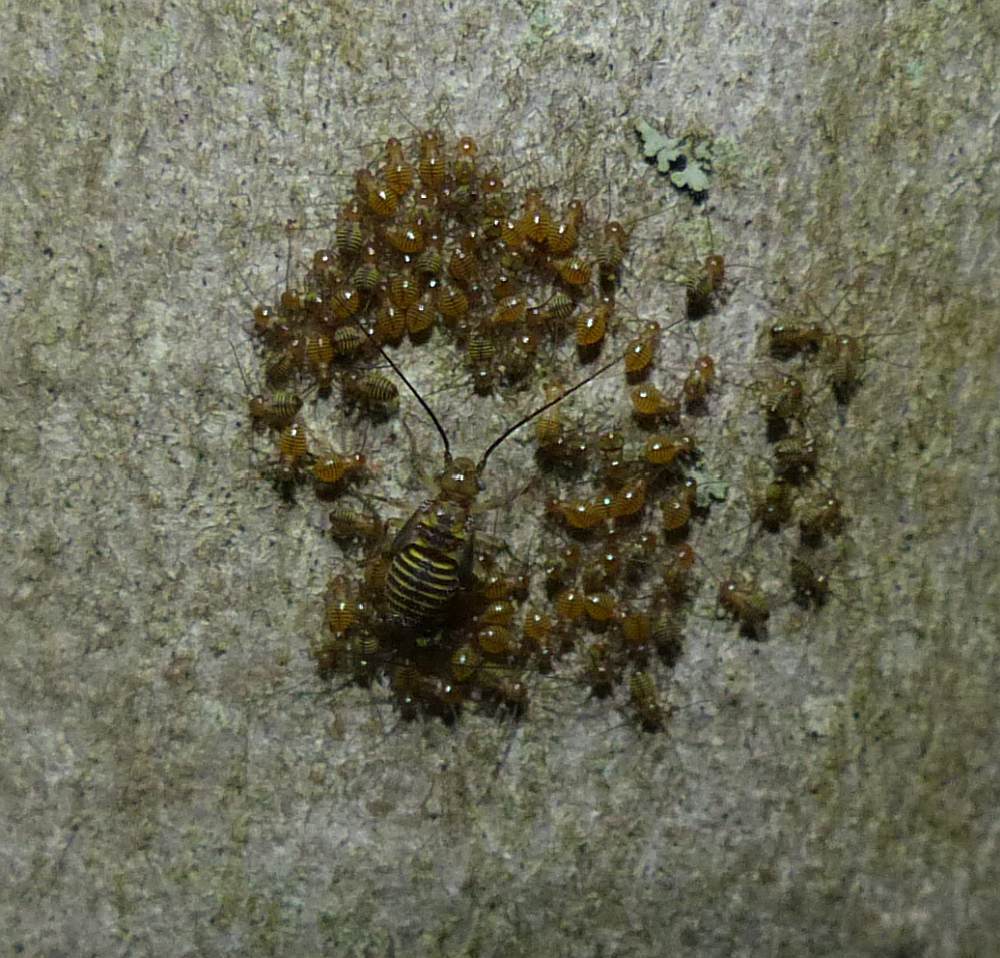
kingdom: Animalia
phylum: Arthropoda
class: Insecta
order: Psocodea
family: Psocidae
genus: Cerastipsocus
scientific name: Cerastipsocus venosus
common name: Tree cattle
